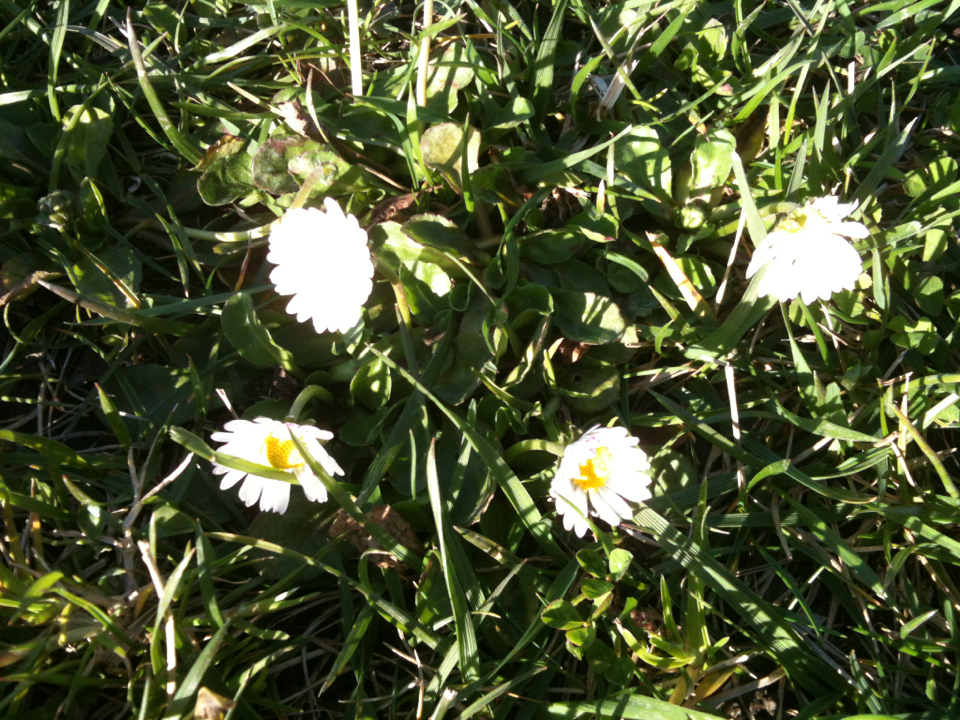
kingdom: Plantae
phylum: Tracheophyta
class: Magnoliopsida
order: Asterales
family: Asteraceae
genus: Bellis
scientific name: Bellis perennis
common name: Lawndaisy
